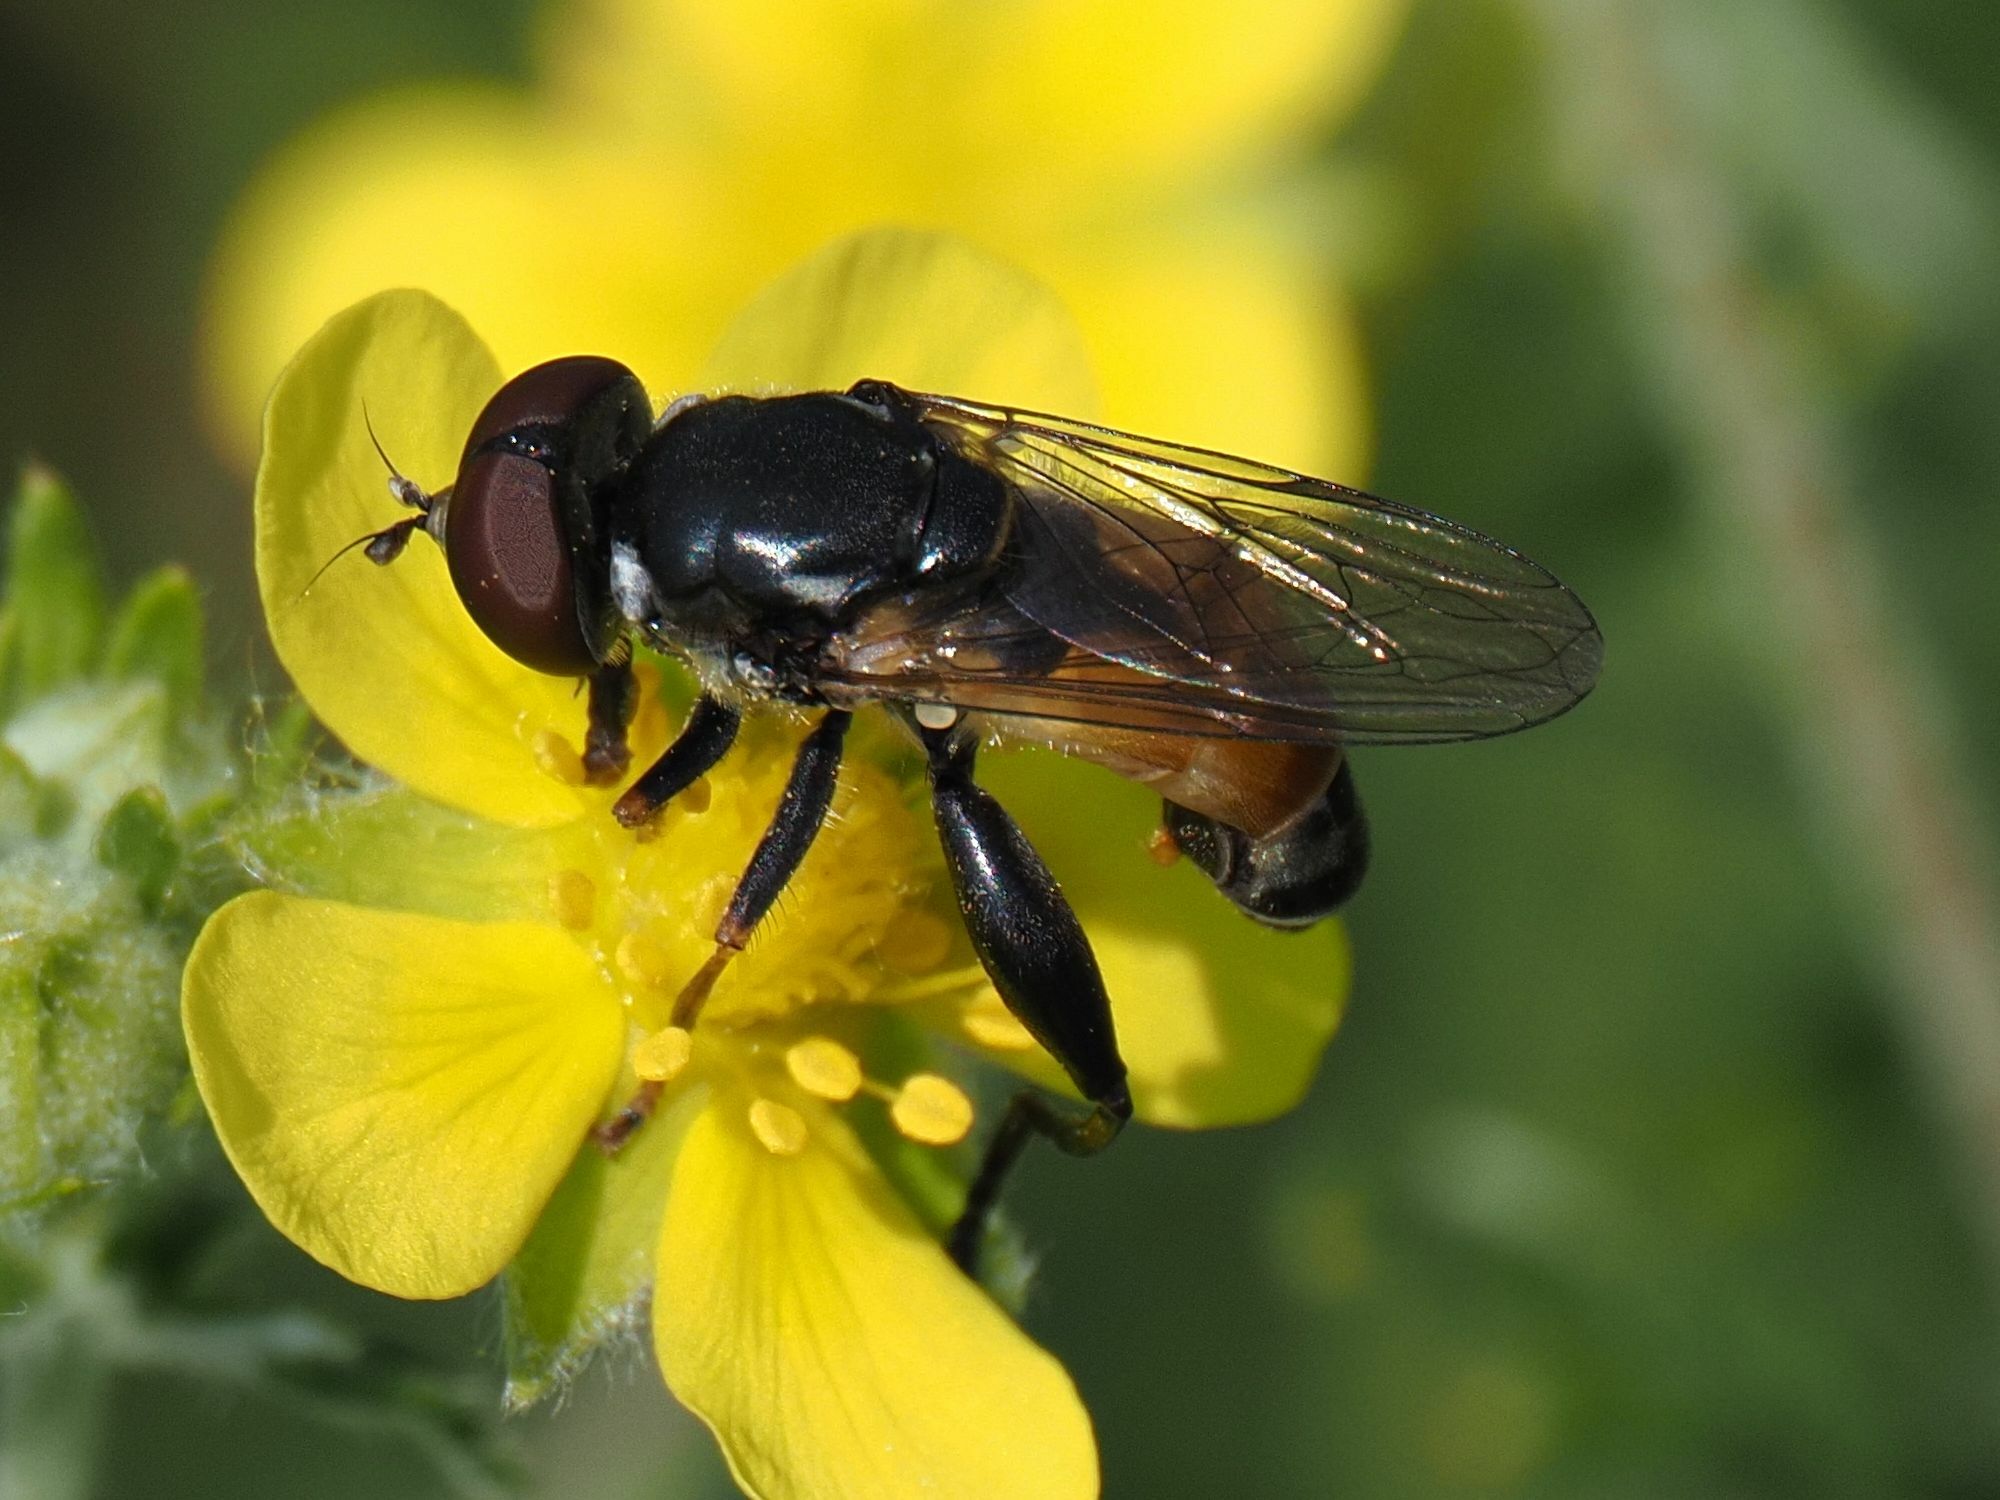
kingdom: Animalia
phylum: Arthropoda
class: Insecta
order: Diptera
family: Syrphidae
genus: Tropidia
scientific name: Tropidia scita
